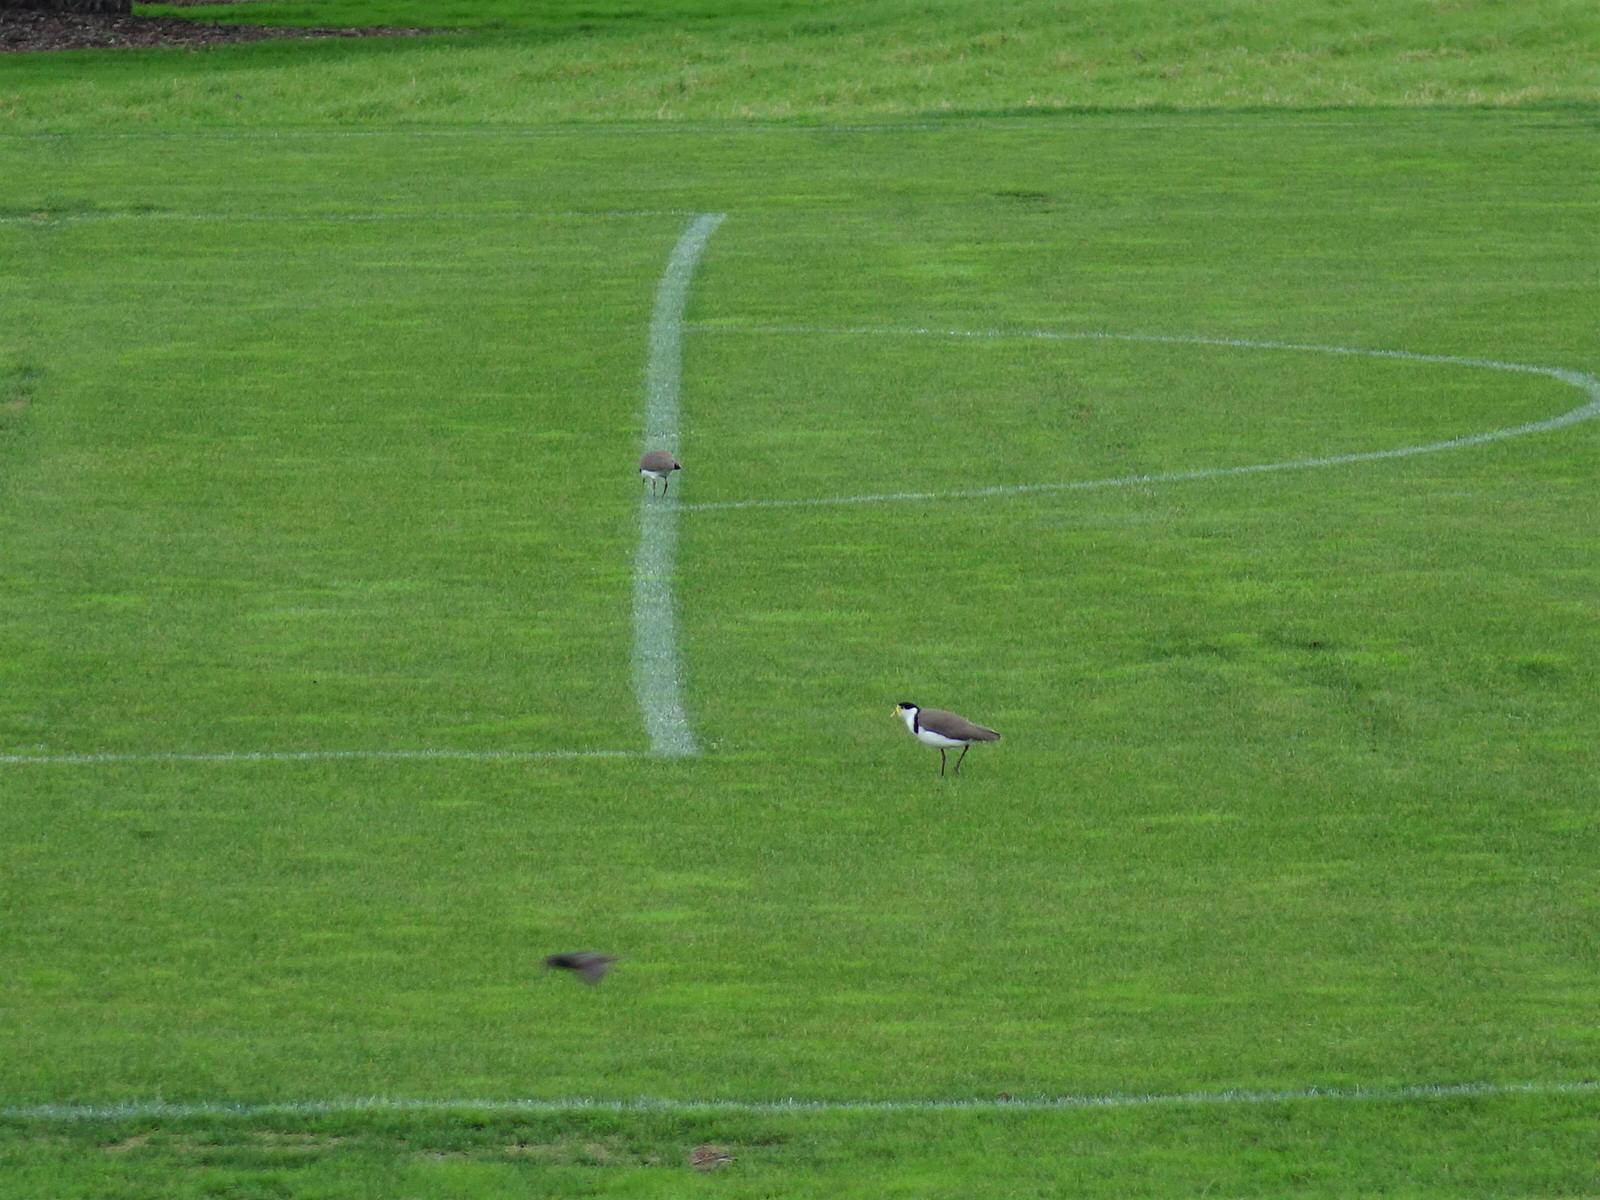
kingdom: Animalia
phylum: Chordata
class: Aves
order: Charadriiformes
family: Charadriidae
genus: Vanellus
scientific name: Vanellus miles
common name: Masked lapwing
